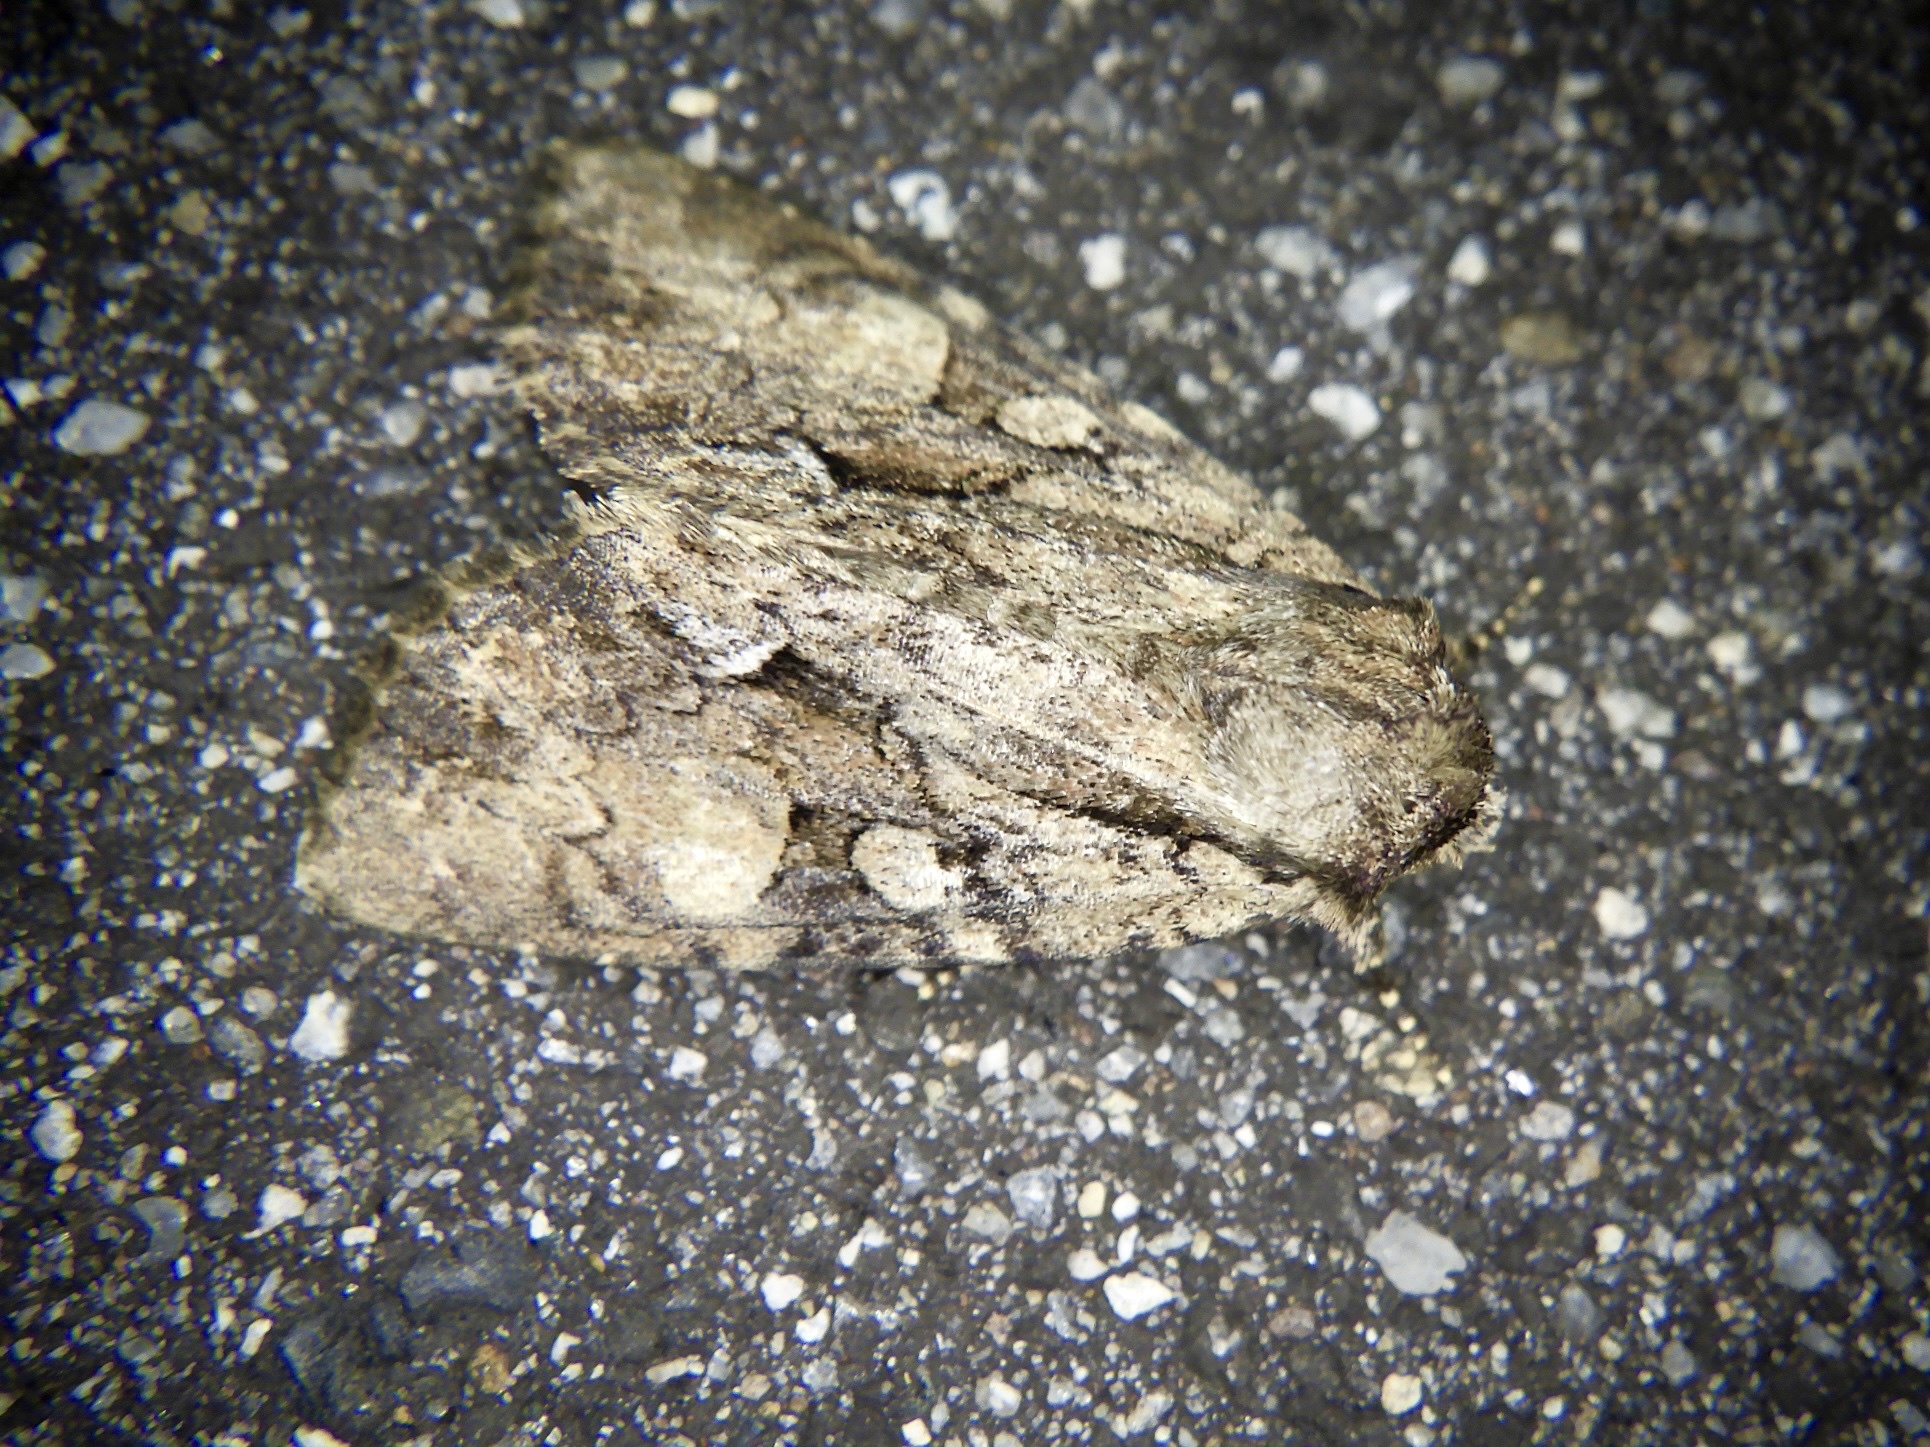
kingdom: Animalia
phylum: Arthropoda
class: Insecta
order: Lepidoptera
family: Noctuidae
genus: Protegira
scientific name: Protegira songi
